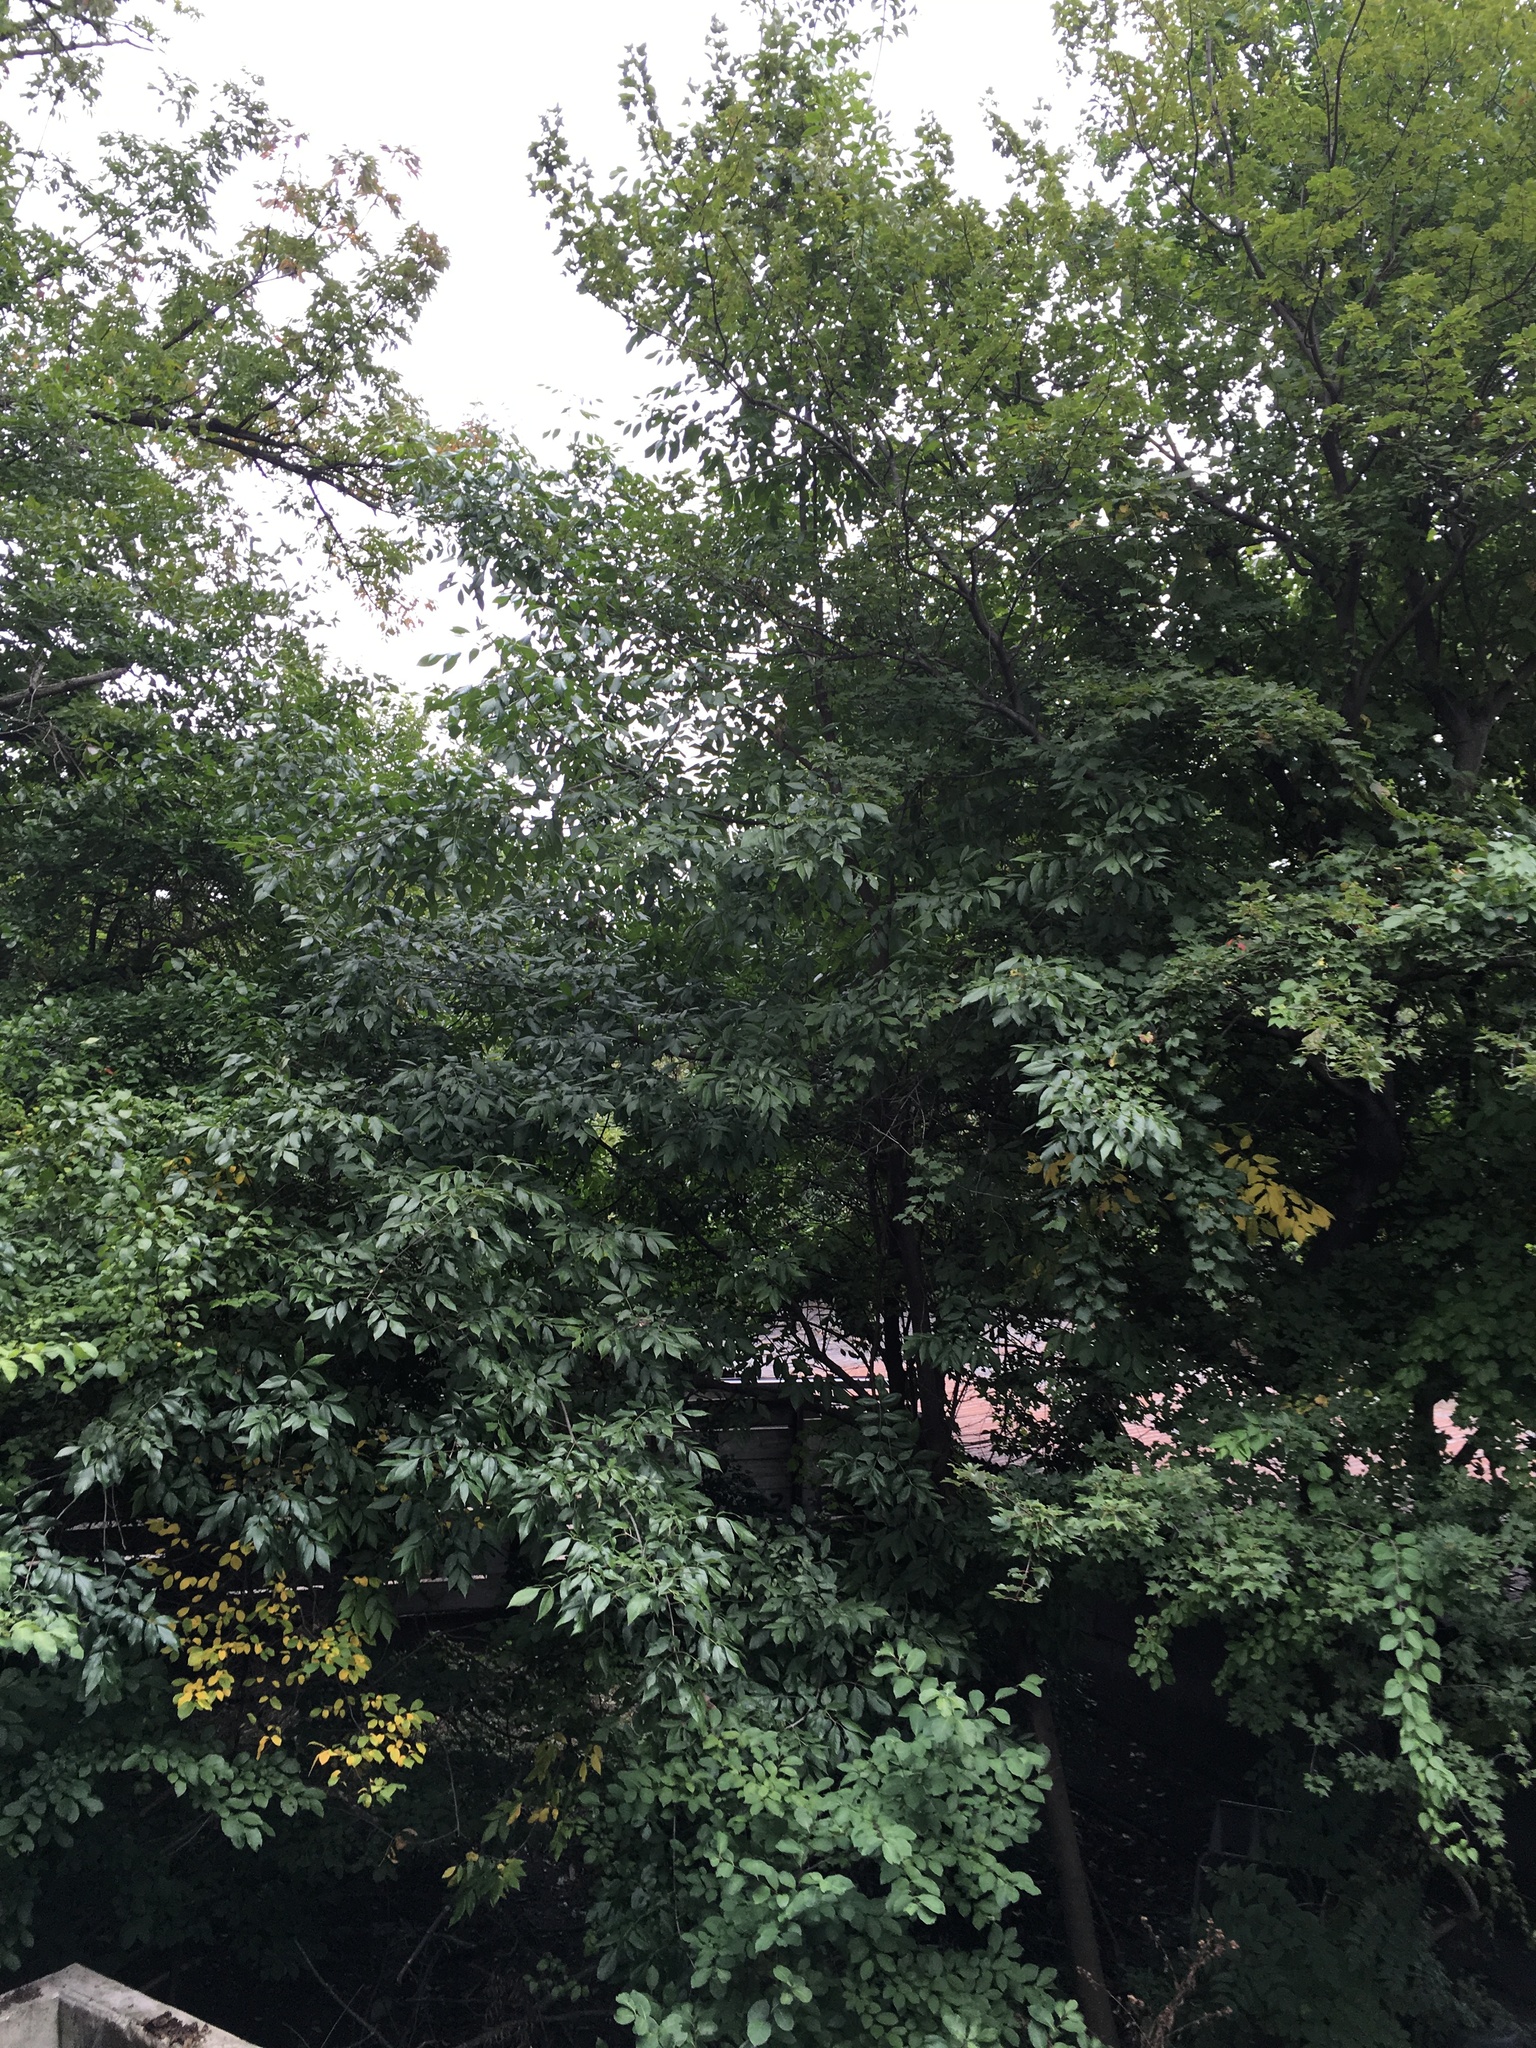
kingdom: Plantae
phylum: Tracheophyta
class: Magnoliopsida
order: Lamiales
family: Oleaceae
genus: Fraxinus
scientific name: Fraxinus profunda
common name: Pumpkin ash
